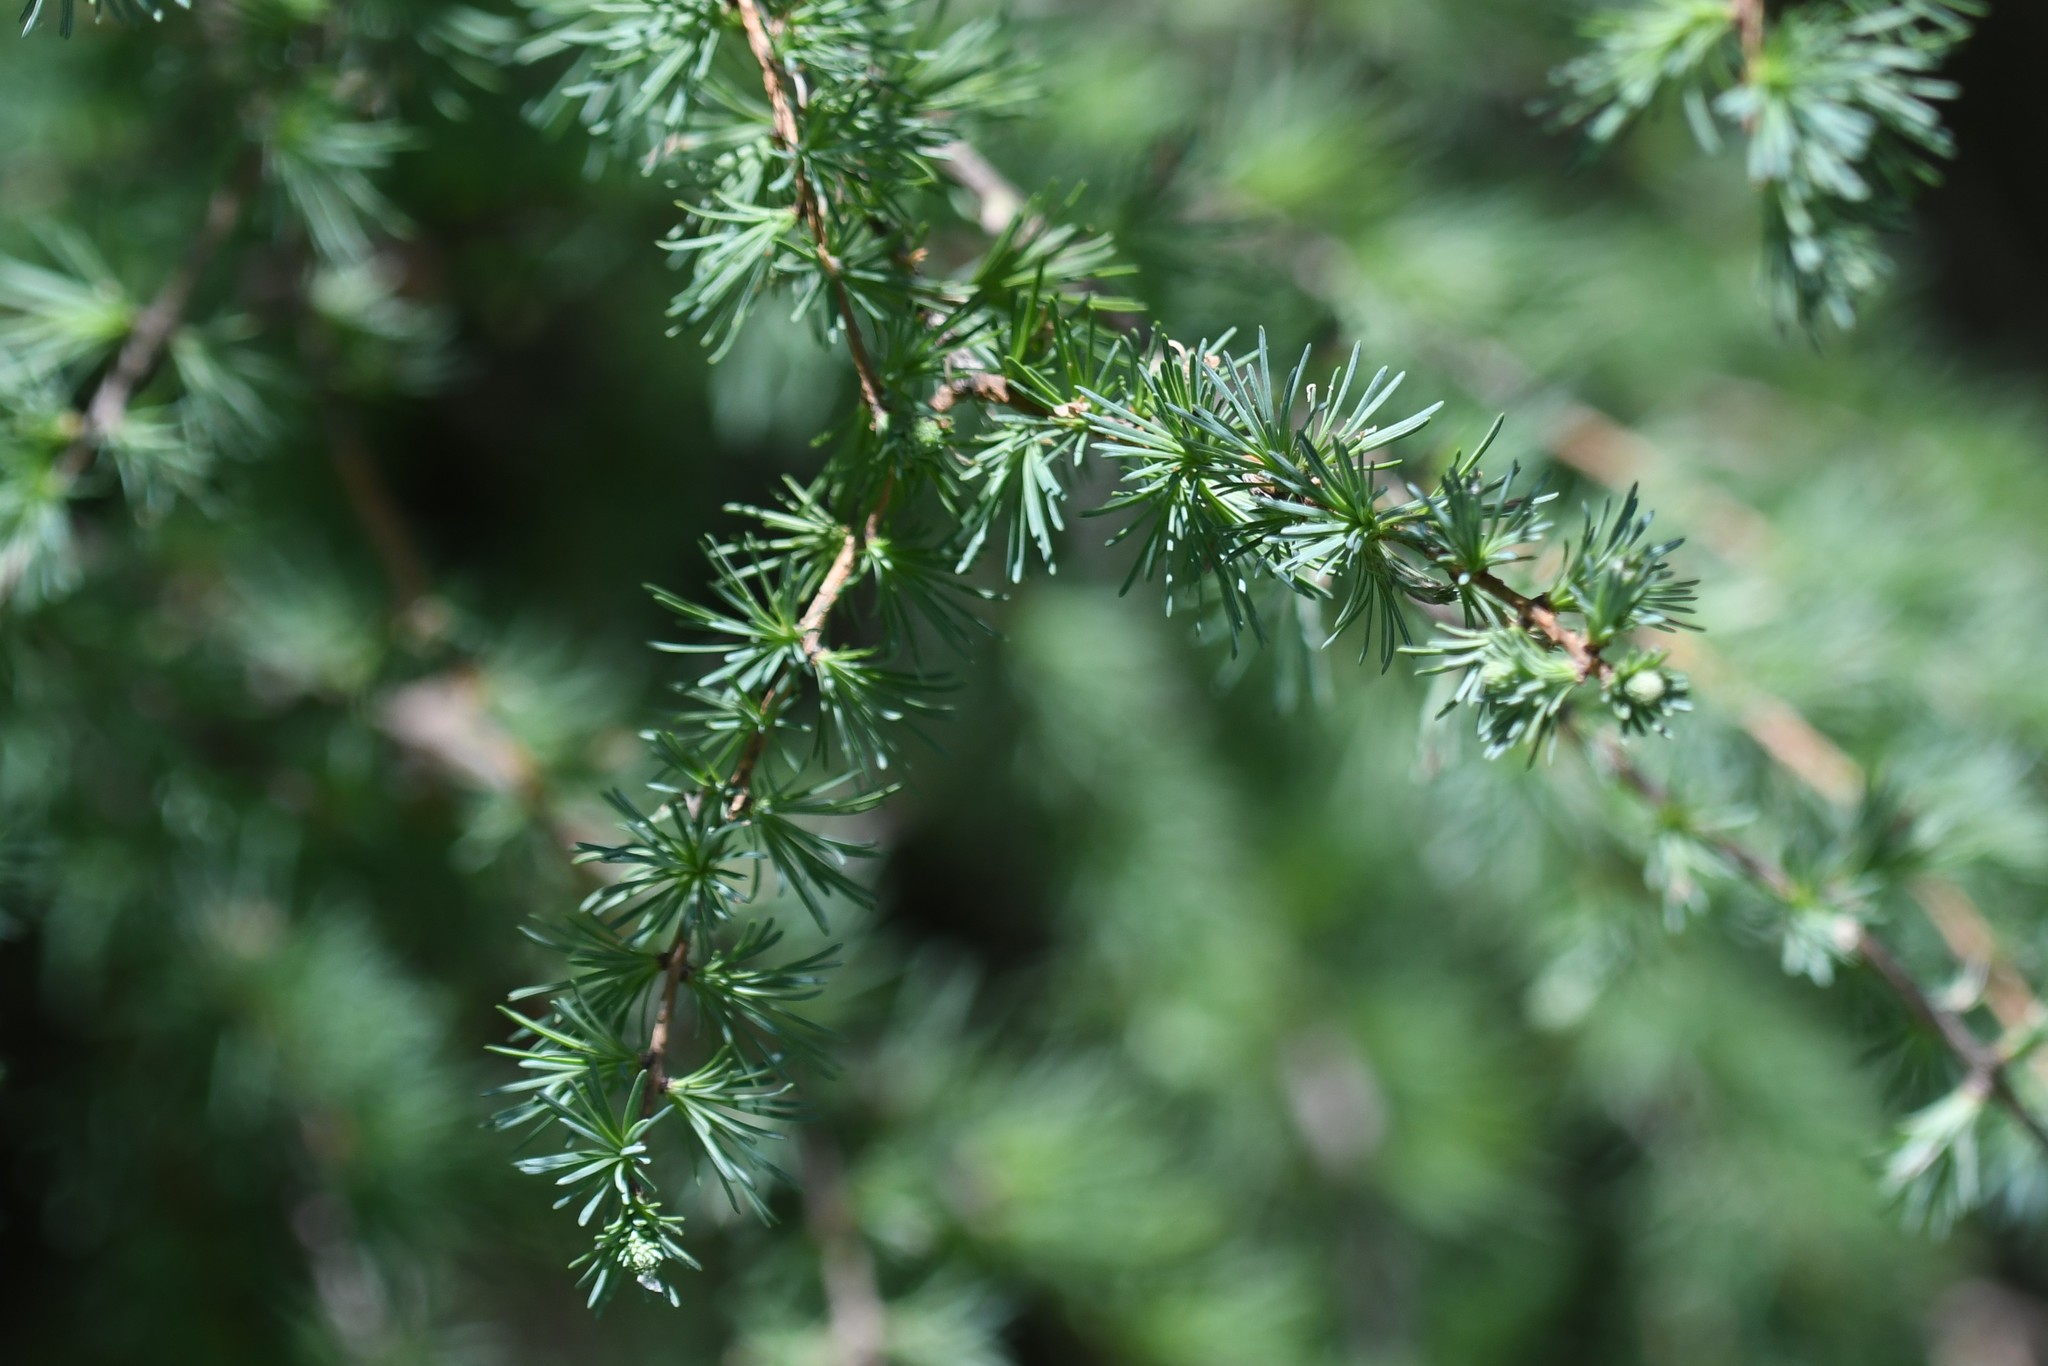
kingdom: Plantae
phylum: Tracheophyta
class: Pinopsida
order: Pinales
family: Pinaceae
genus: Larix
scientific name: Larix laricina
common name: American larch
